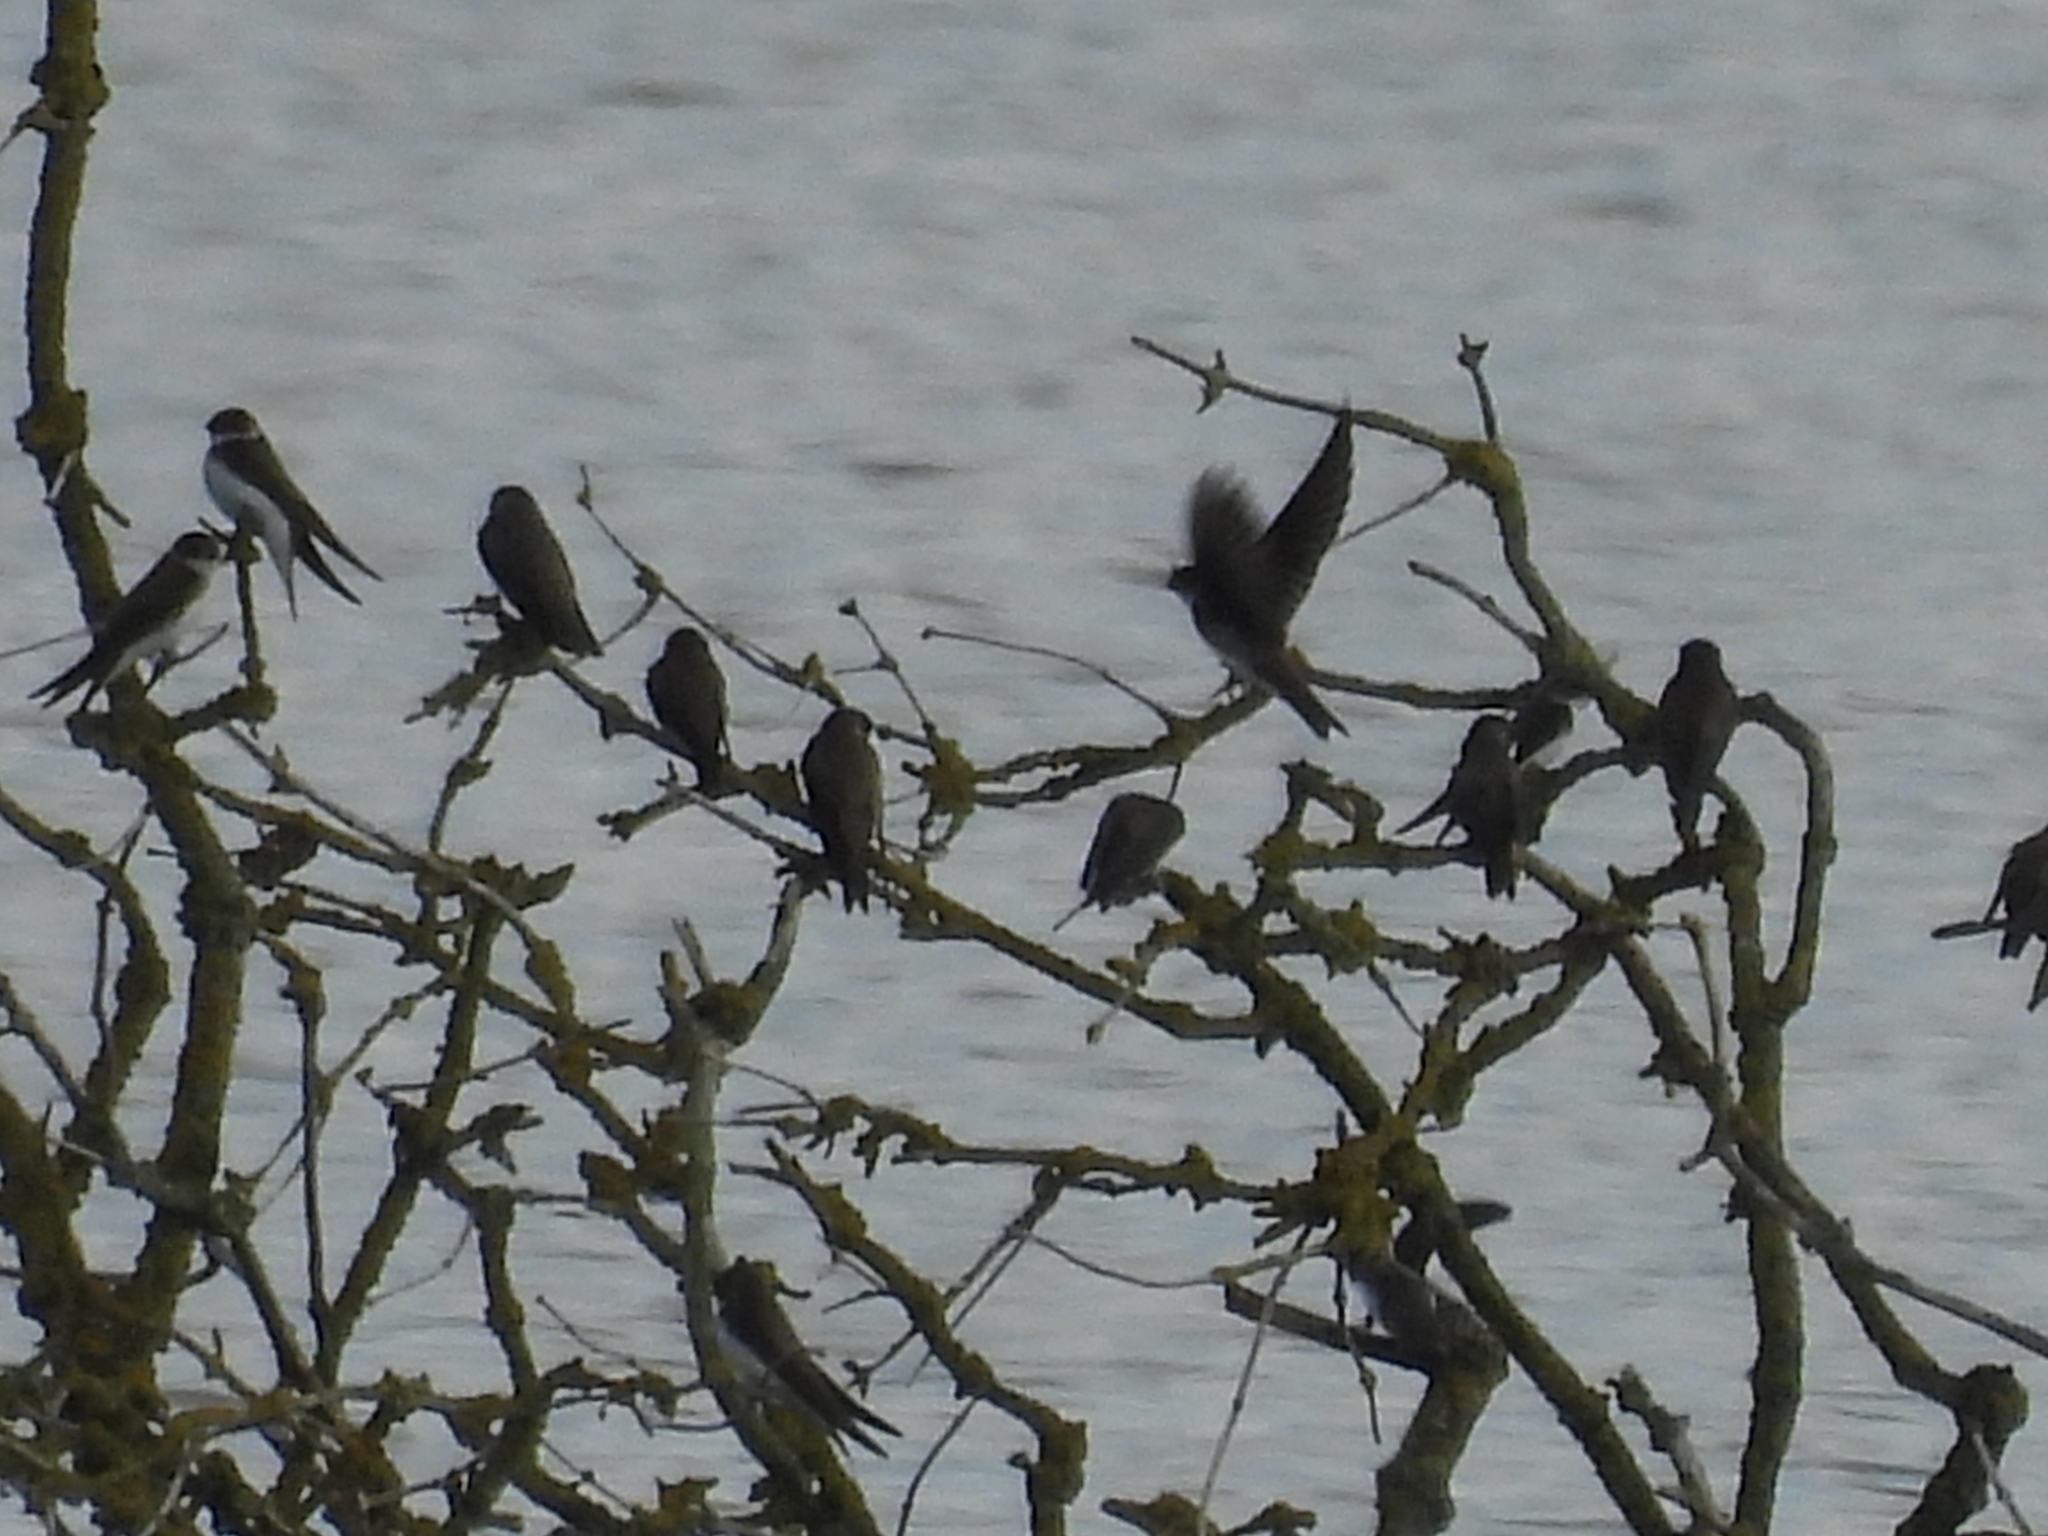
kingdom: Animalia
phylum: Chordata
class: Aves
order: Passeriformes
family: Hirundinidae
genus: Riparia
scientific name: Riparia riparia
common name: Sand martin
